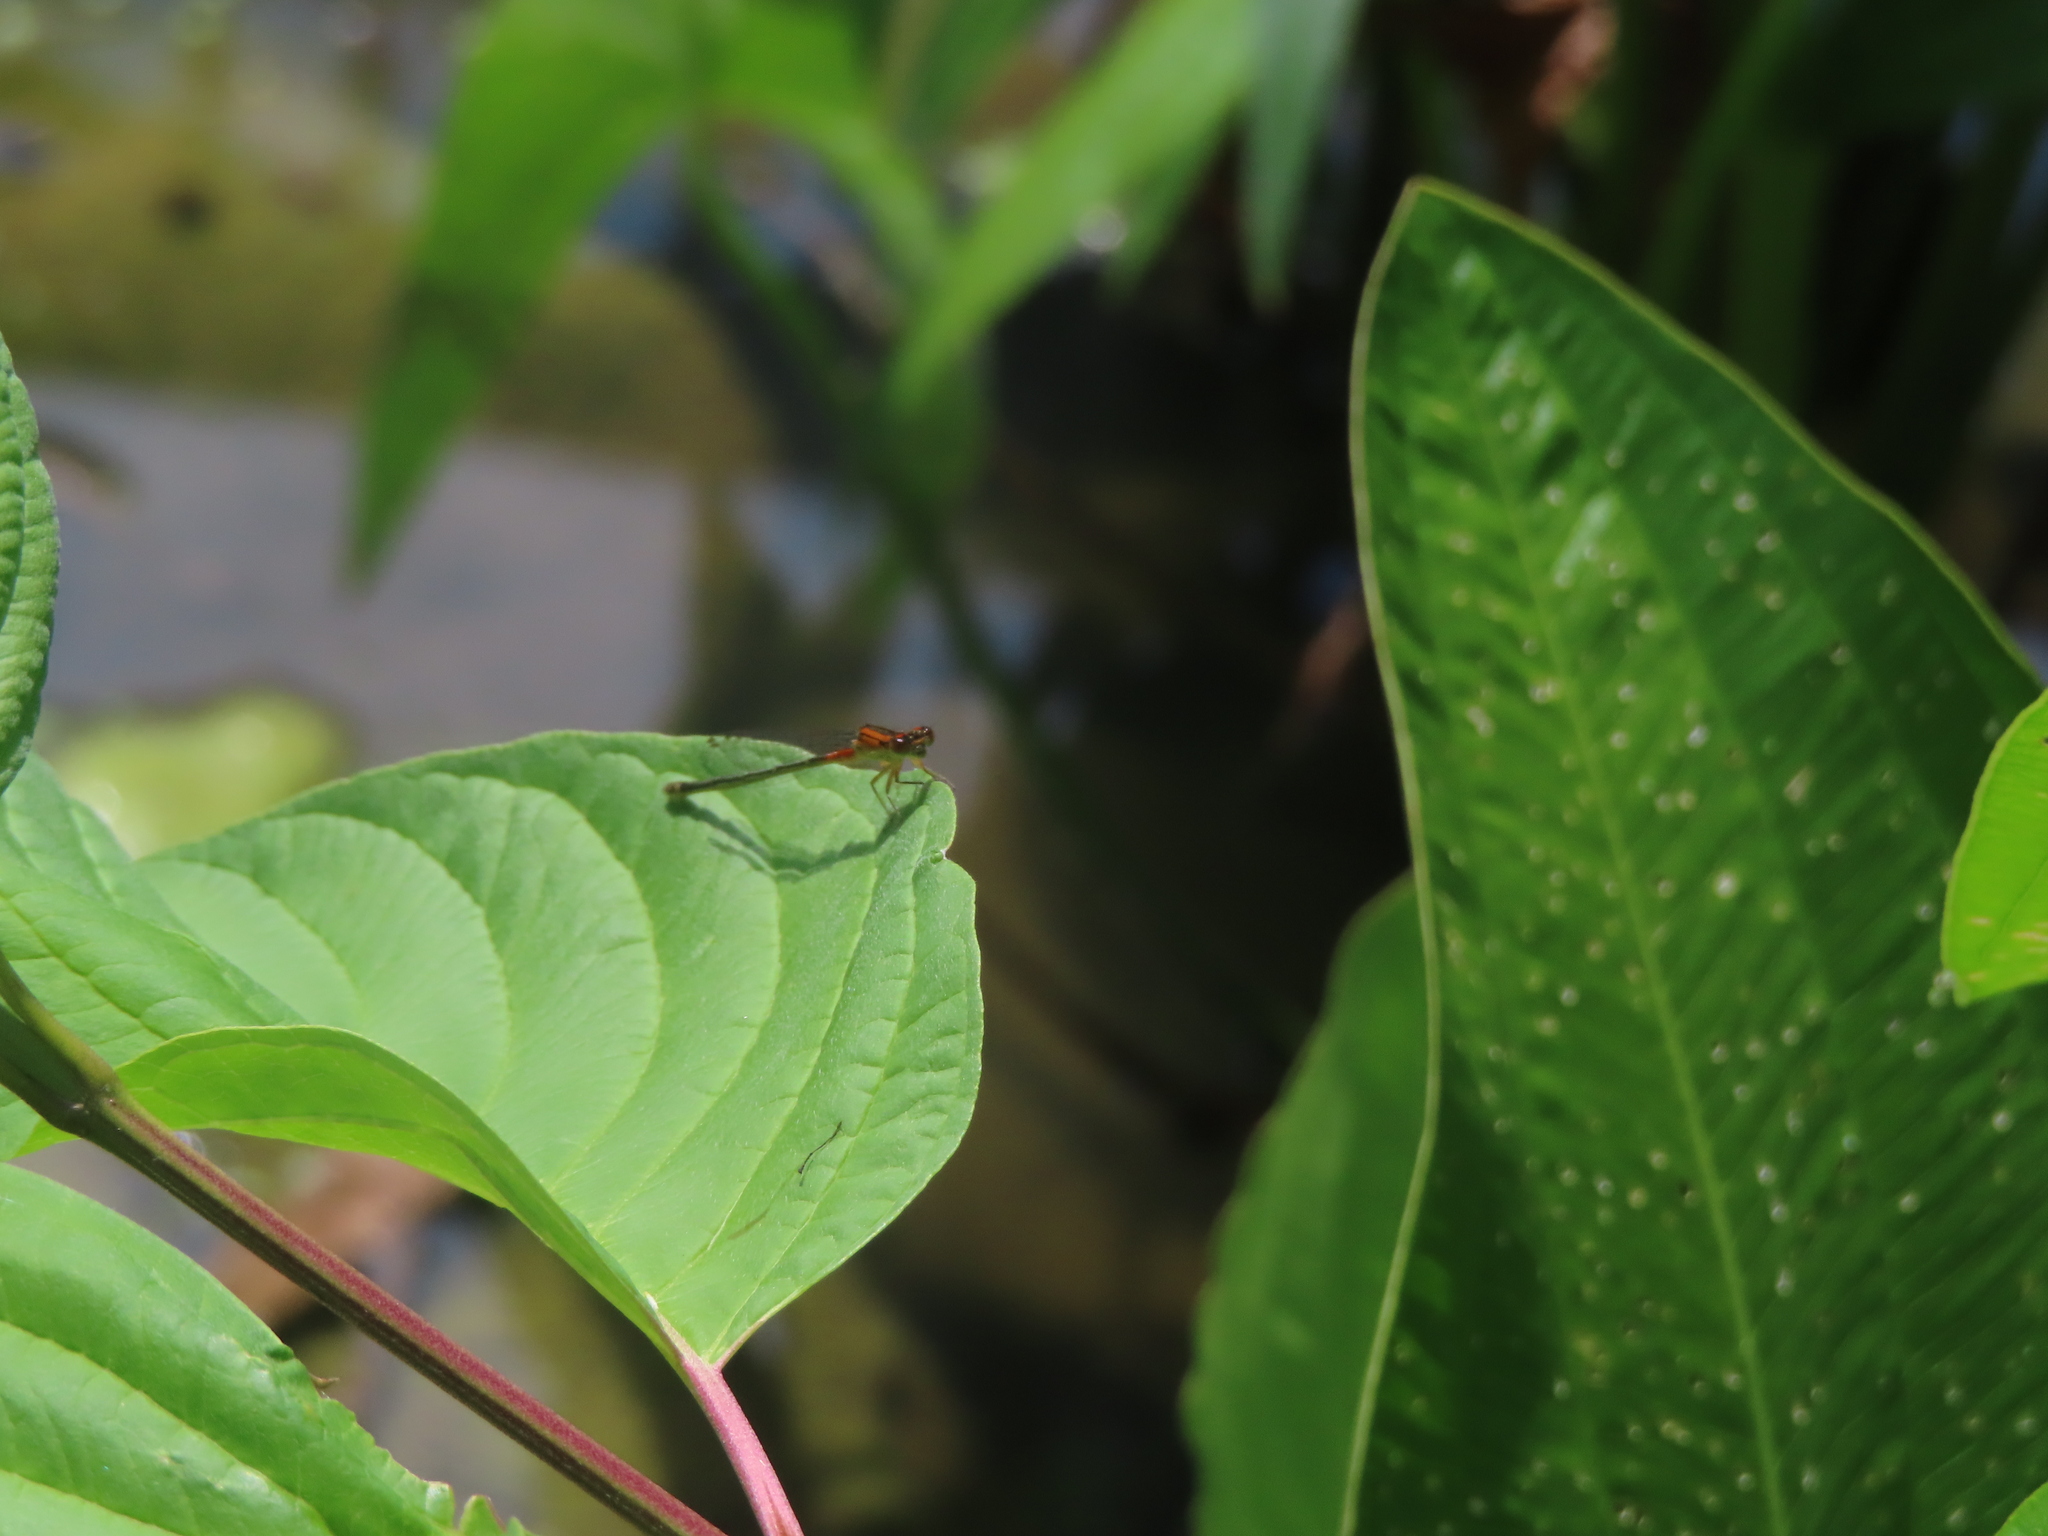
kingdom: Animalia
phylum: Arthropoda
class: Insecta
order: Odonata
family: Coenagrionidae
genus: Ischnura
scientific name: Ischnura verticalis
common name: Eastern forktail
